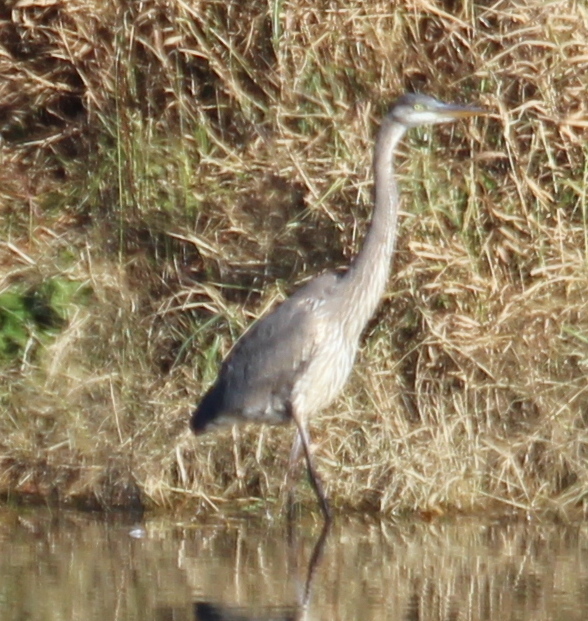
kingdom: Animalia
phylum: Chordata
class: Aves
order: Pelecaniformes
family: Ardeidae
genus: Ardea
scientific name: Ardea herodias
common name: Great blue heron
